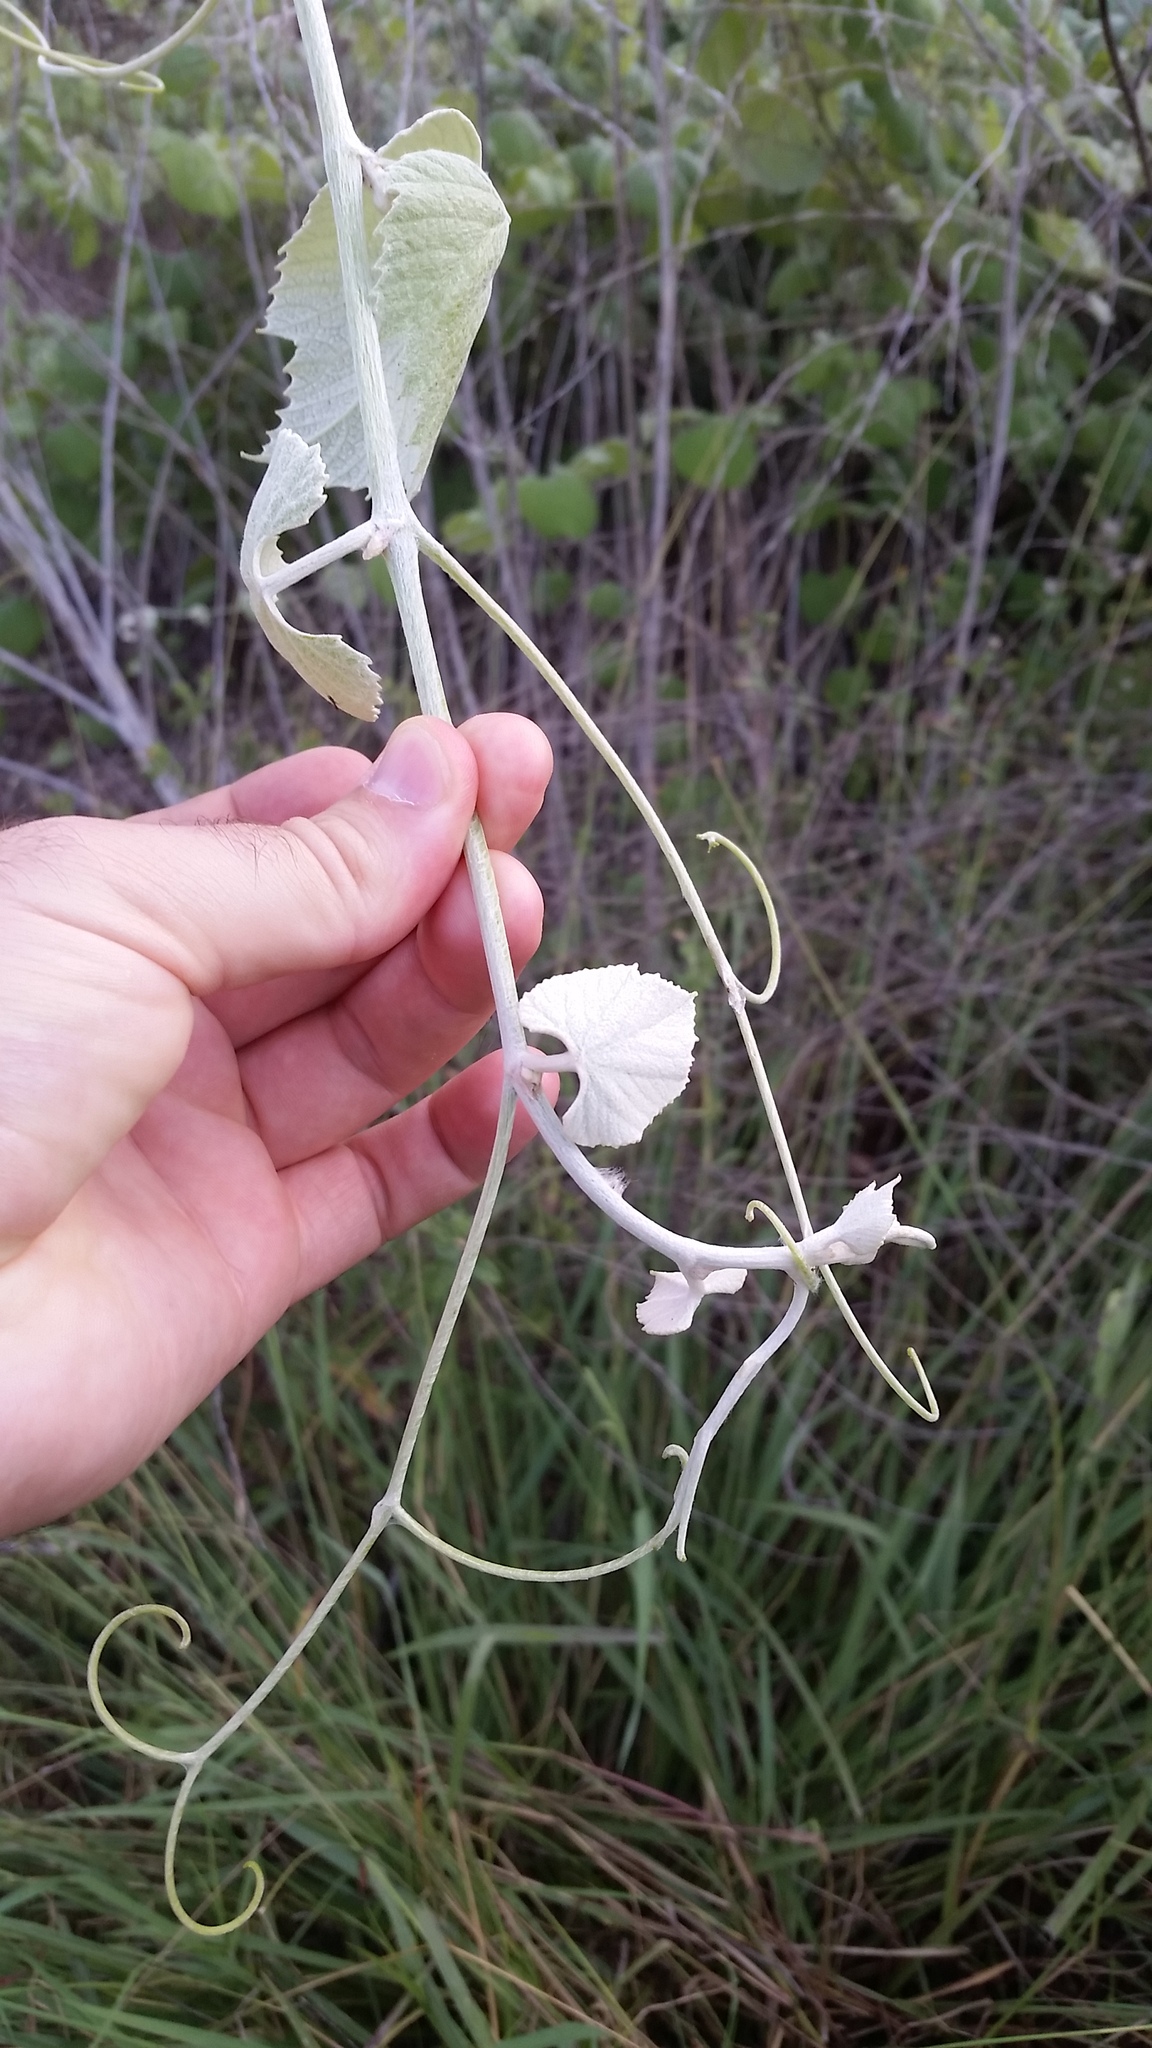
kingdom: Plantae
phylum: Tracheophyta
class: Magnoliopsida
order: Vitales
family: Vitaceae
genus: Vitis
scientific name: Vitis girdiana
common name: Desert wild grape
